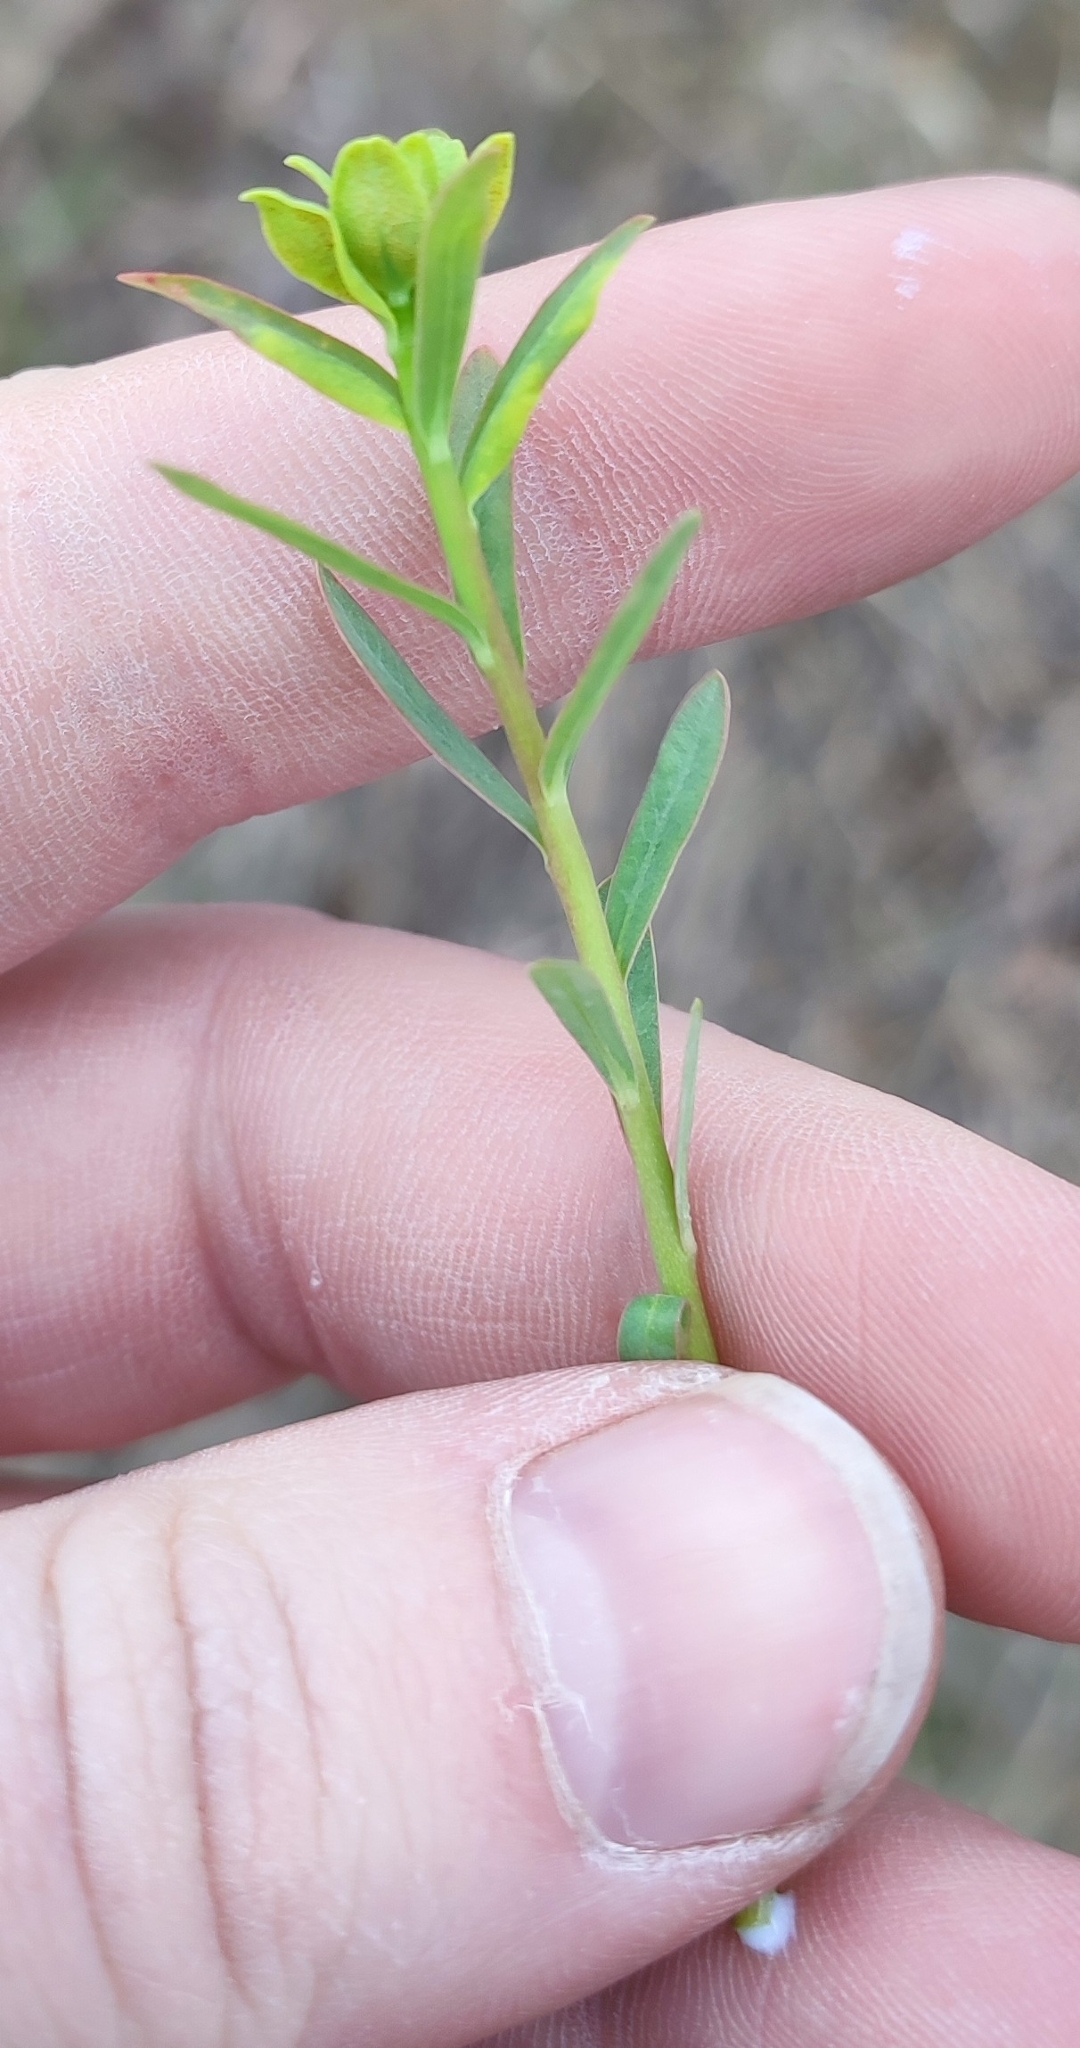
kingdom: Plantae
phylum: Tracheophyta
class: Magnoliopsida
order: Malpighiales
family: Euphorbiaceae
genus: Euphorbia
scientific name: Euphorbia virgata
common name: Leafy spurge
